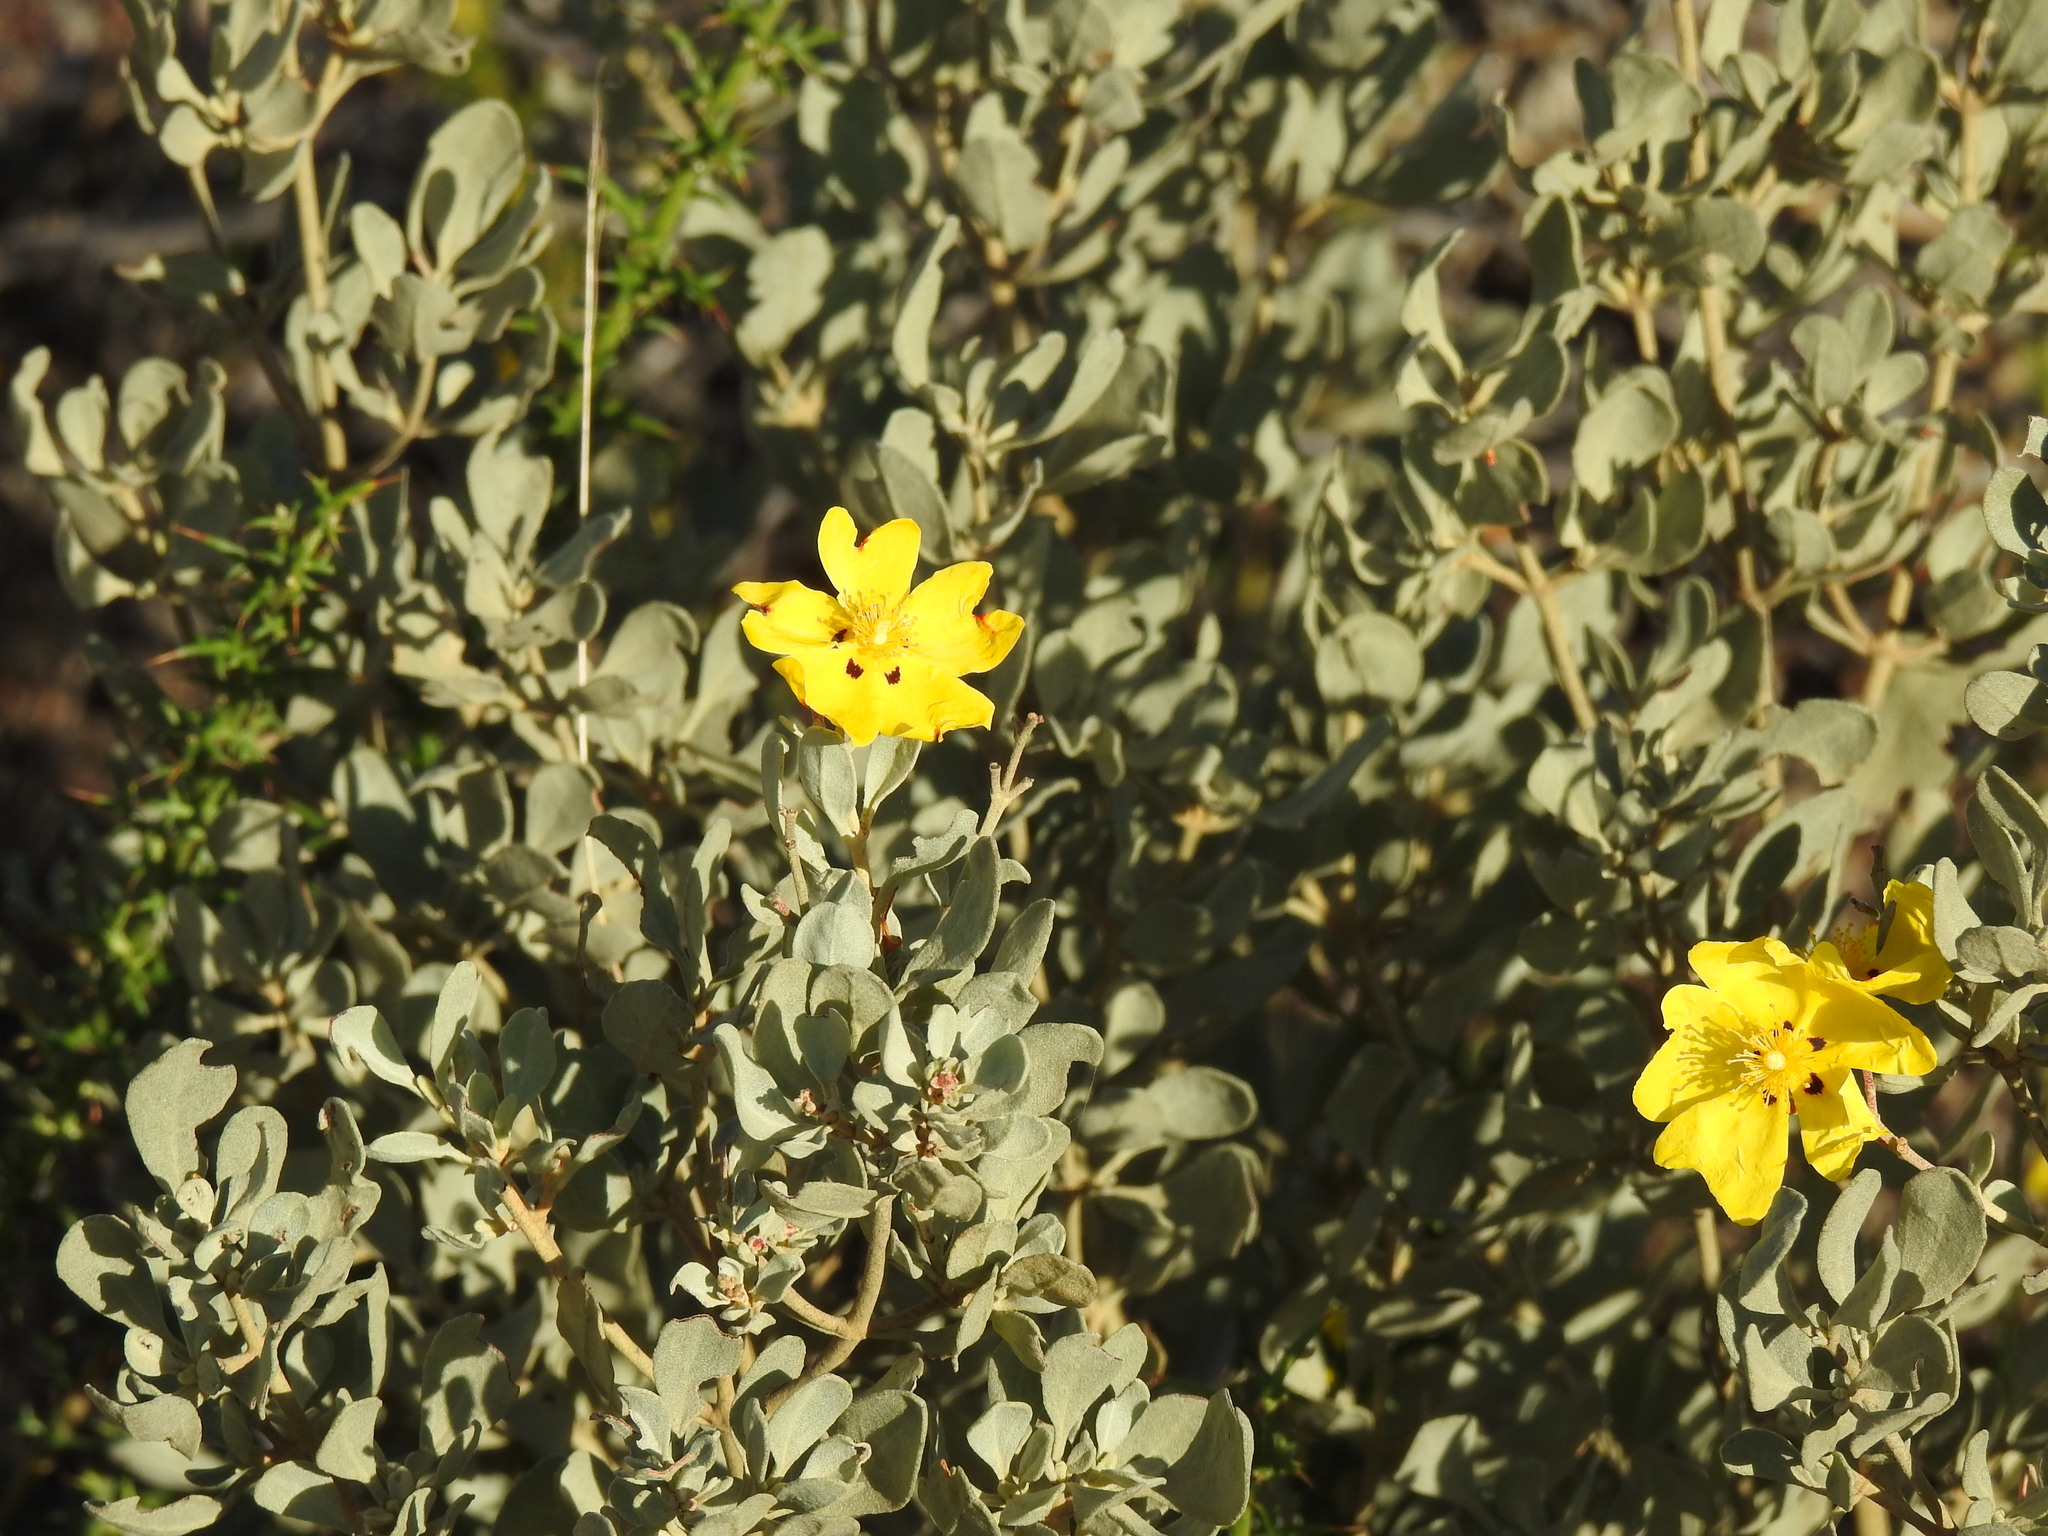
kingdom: Plantae
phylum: Tracheophyta
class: Magnoliopsida
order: Malvales
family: Cistaceae
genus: Halimium
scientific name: Halimium halimifolium
